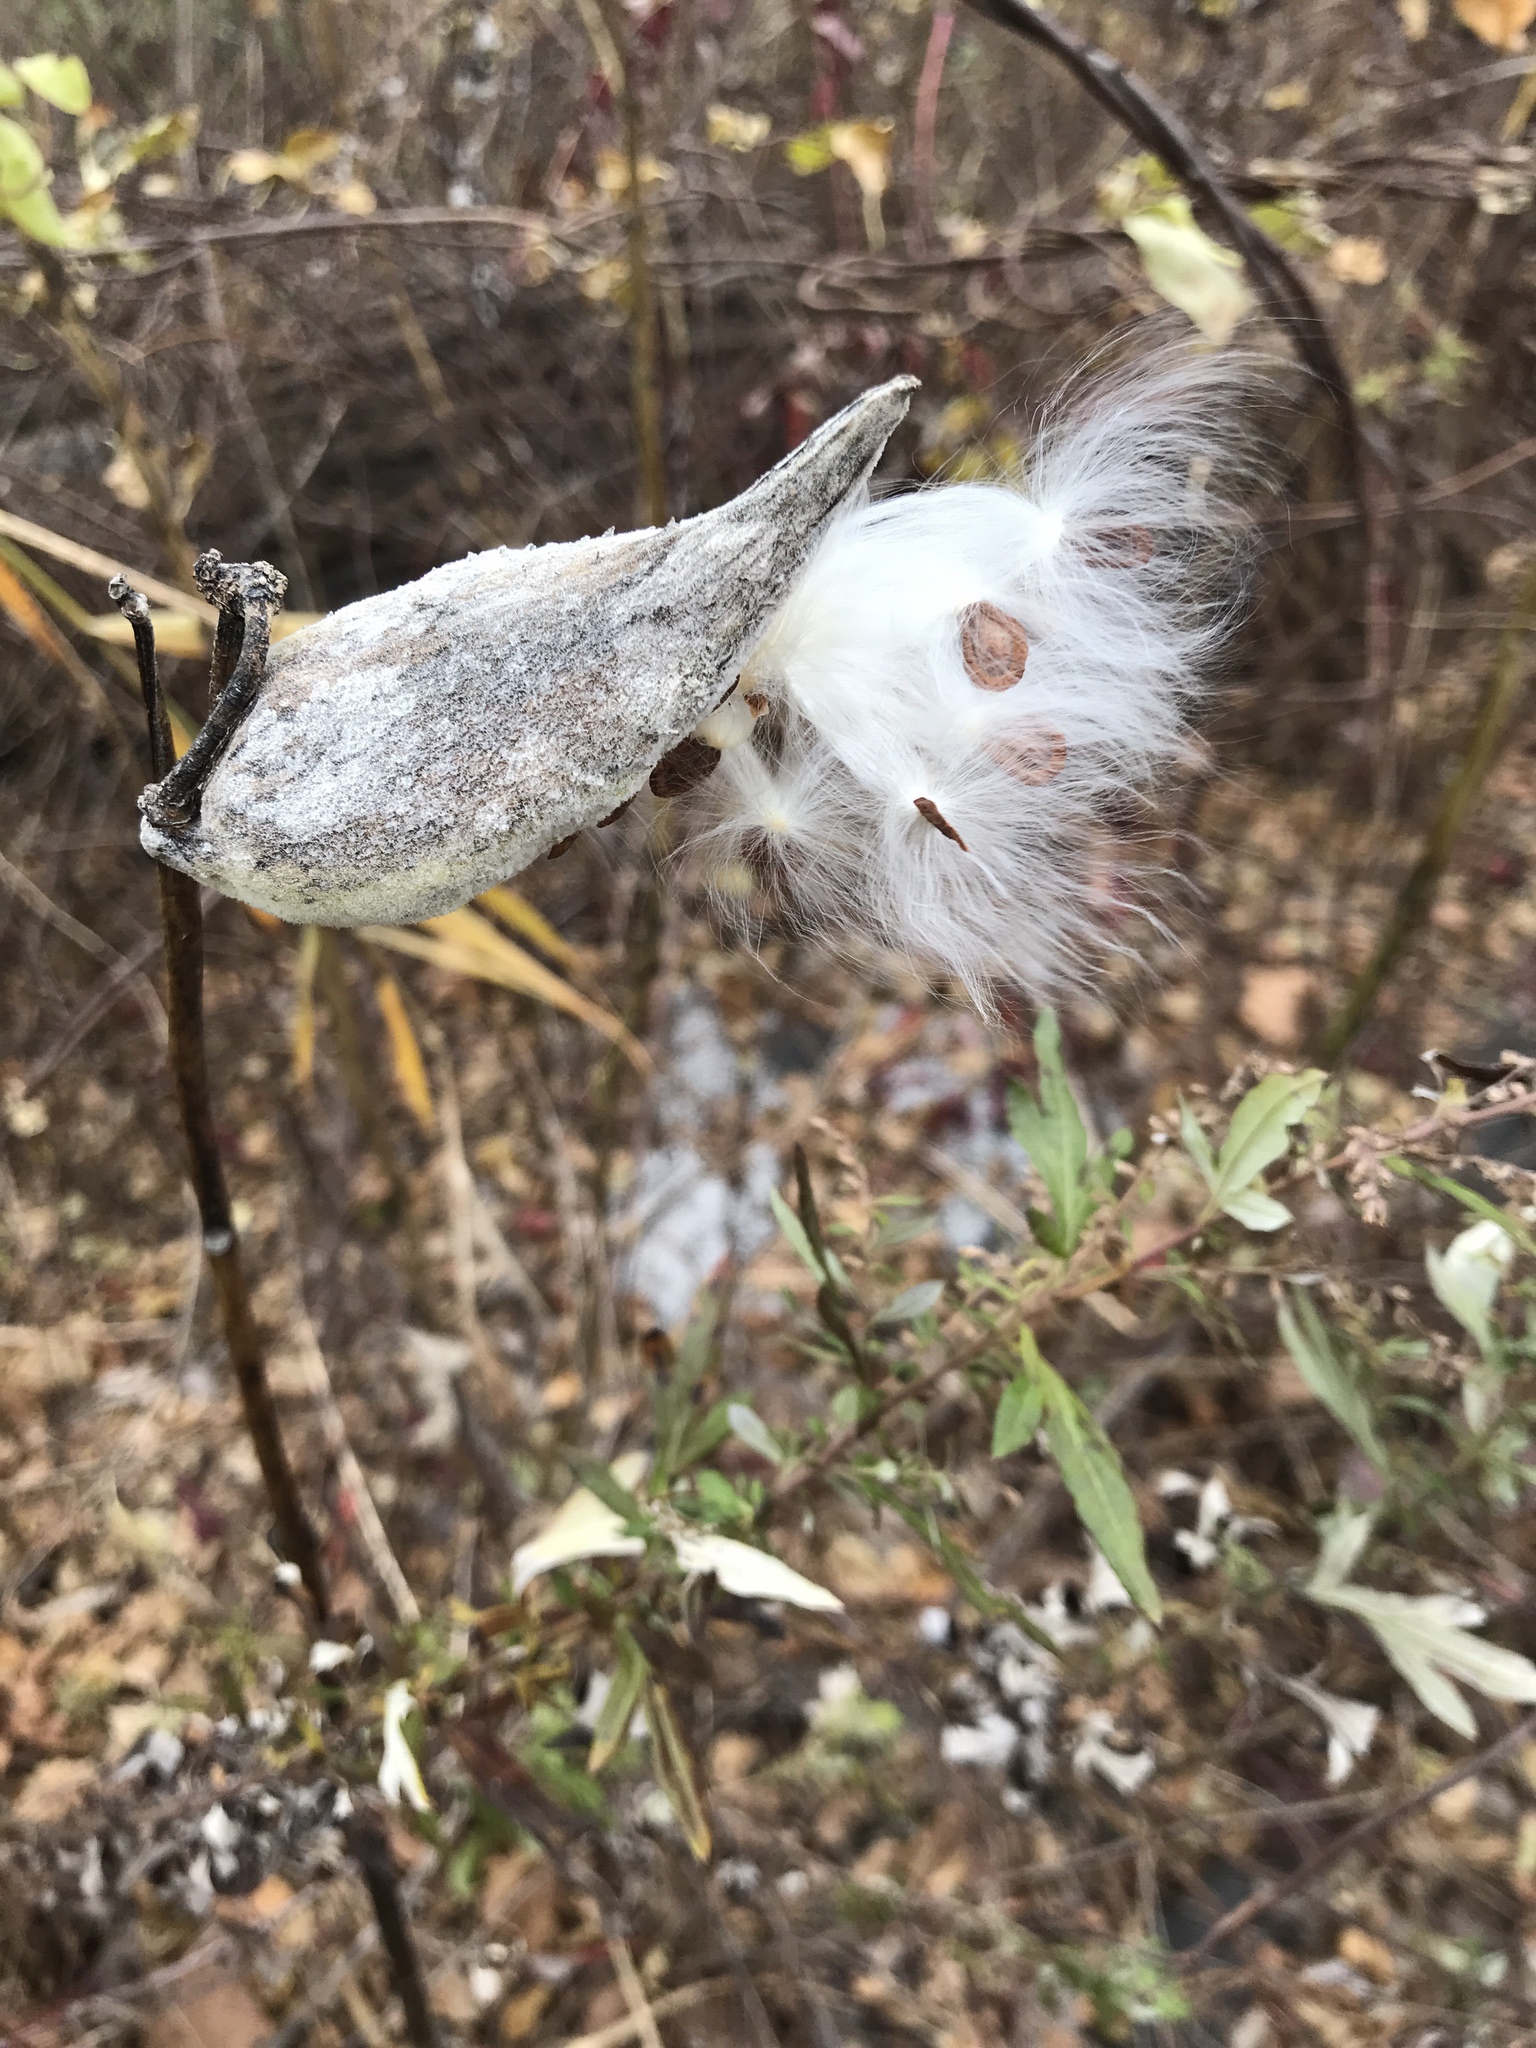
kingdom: Plantae
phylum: Tracheophyta
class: Magnoliopsida
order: Gentianales
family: Apocynaceae
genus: Asclepias
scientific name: Asclepias syriaca
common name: Common milkweed
